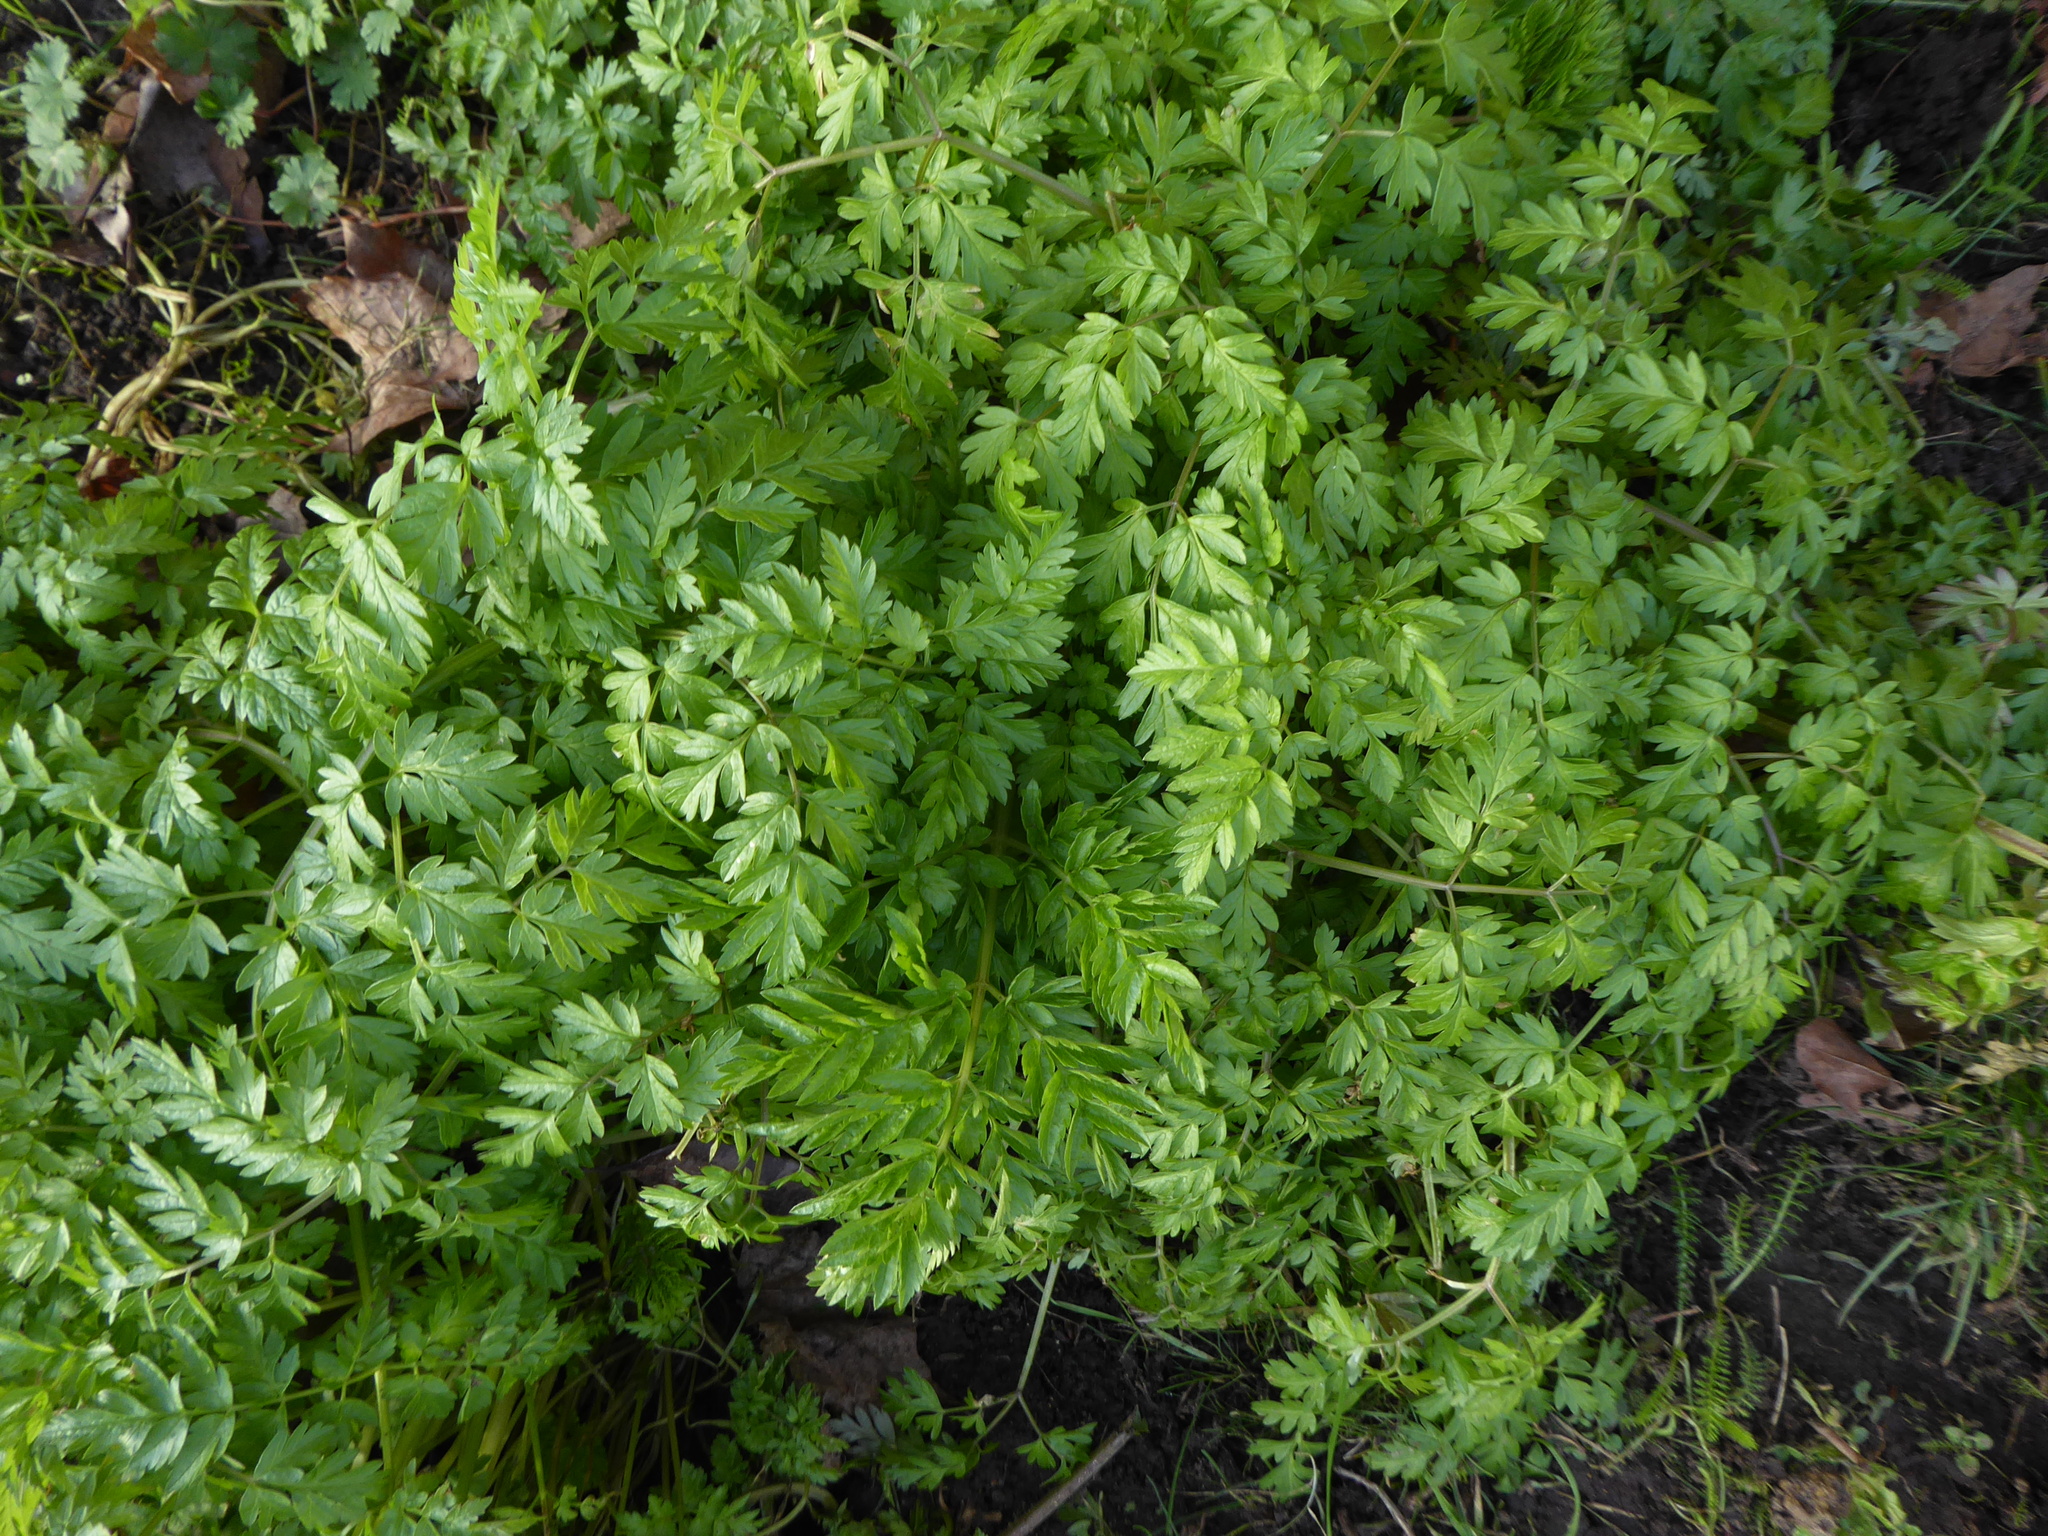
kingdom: Plantae
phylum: Tracheophyta
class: Magnoliopsida
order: Apiales
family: Apiaceae
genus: Anthriscus
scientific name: Anthriscus sylvestris
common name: Cow parsley
